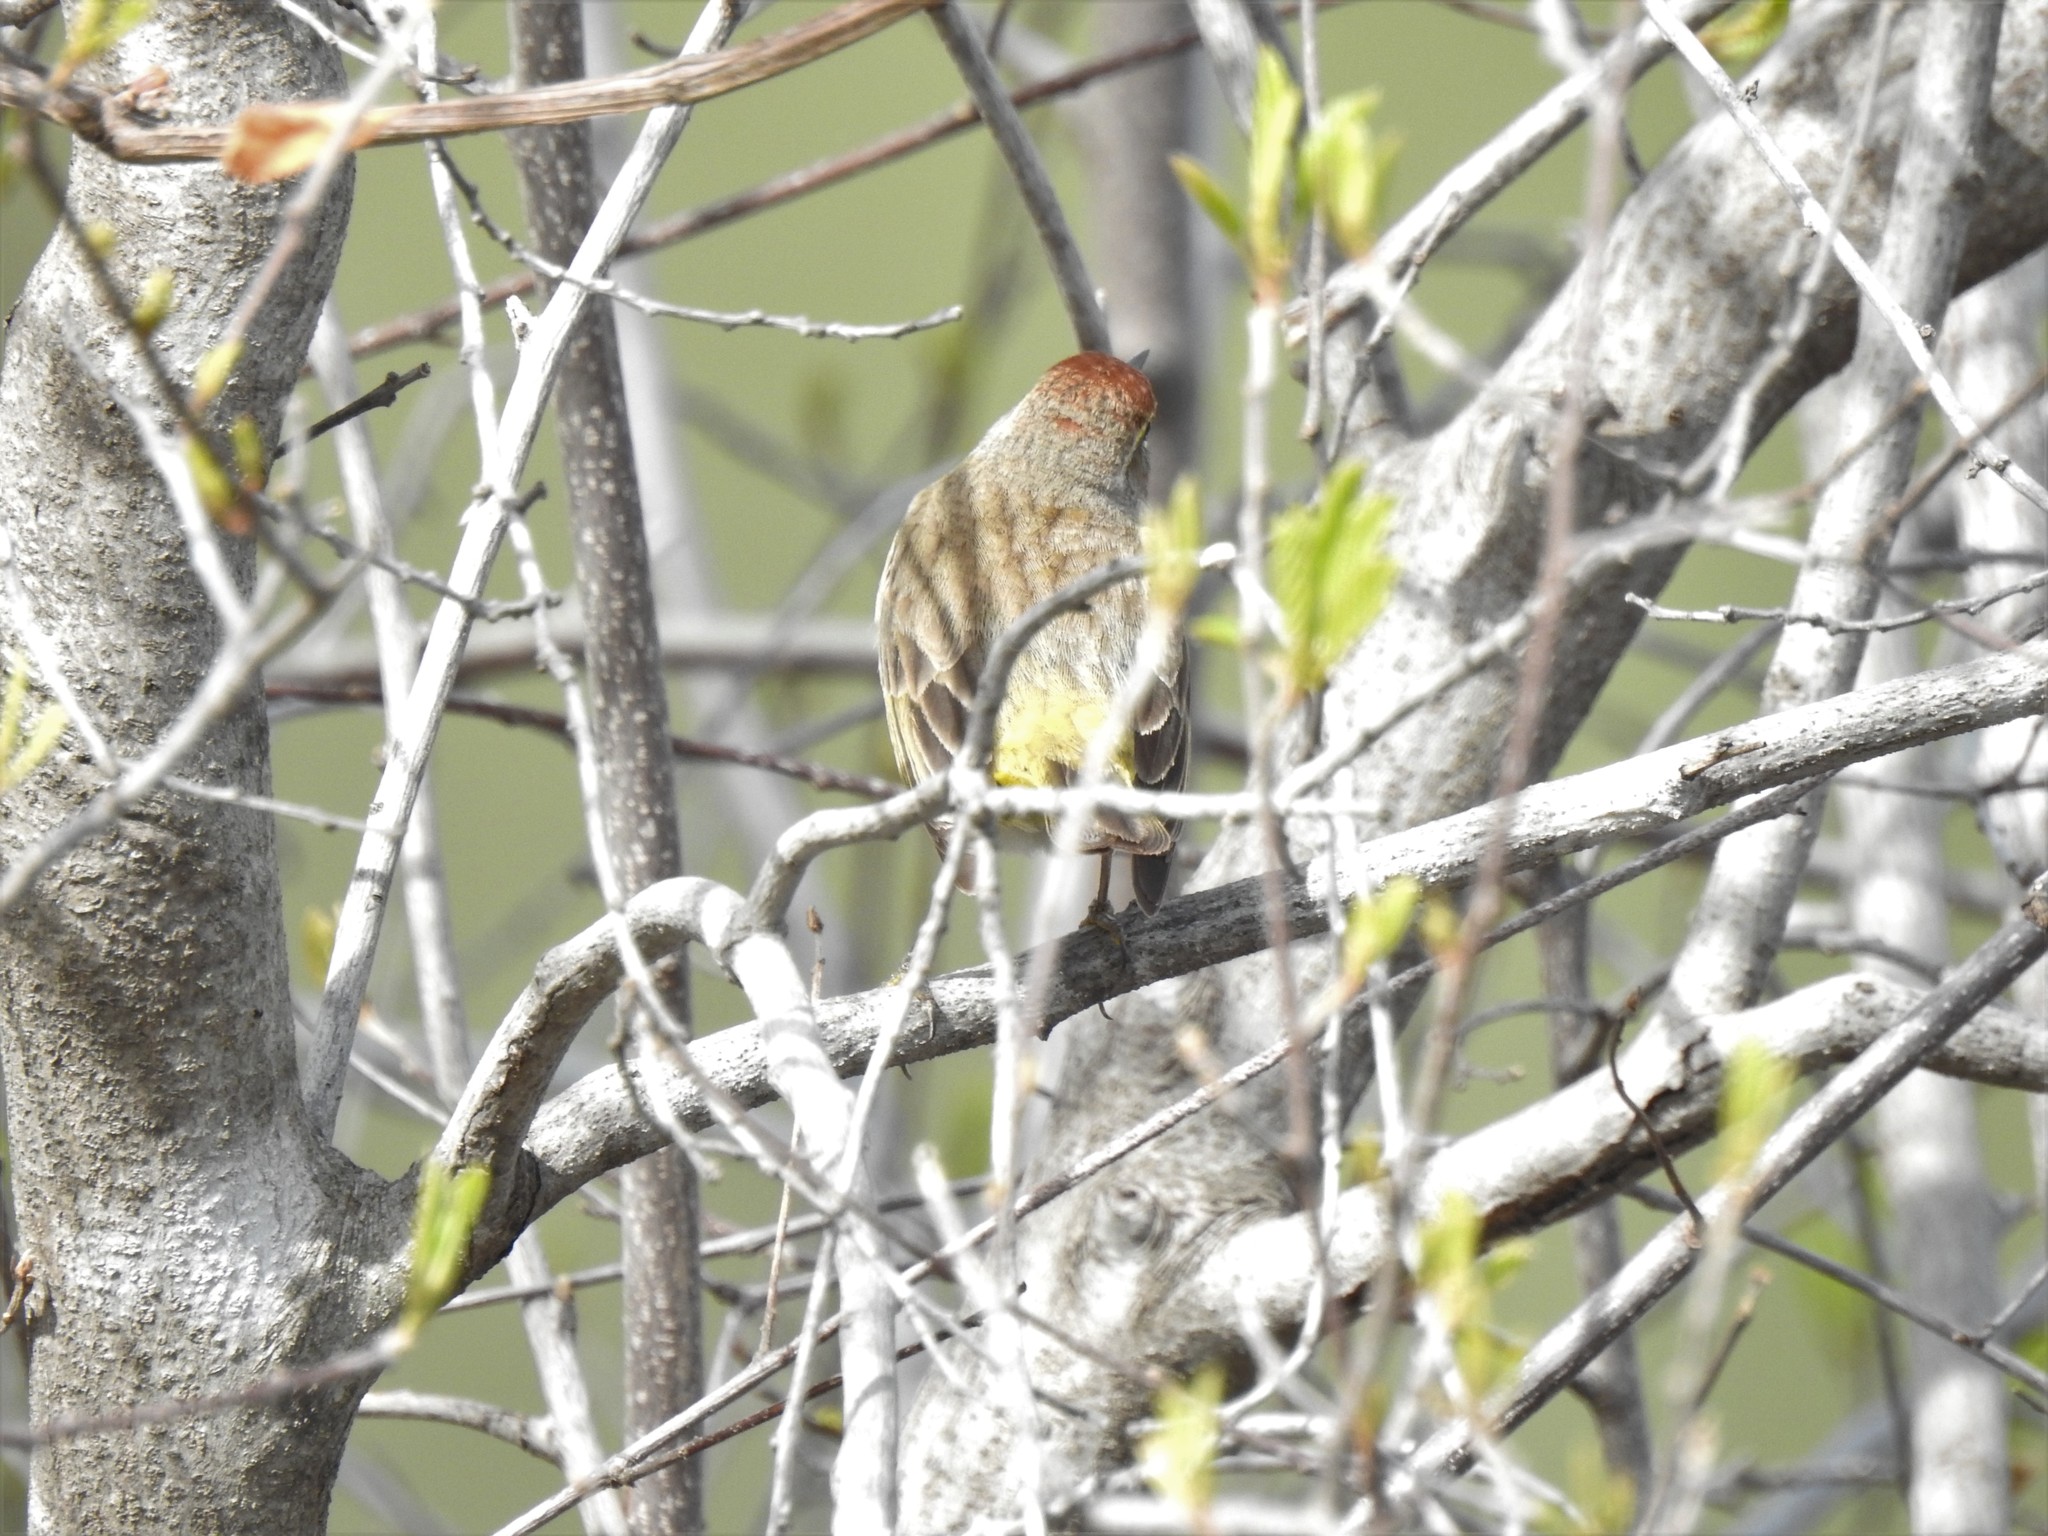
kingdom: Animalia
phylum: Chordata
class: Aves
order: Passeriformes
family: Parulidae
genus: Setophaga
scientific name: Setophaga palmarum
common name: Palm warbler
